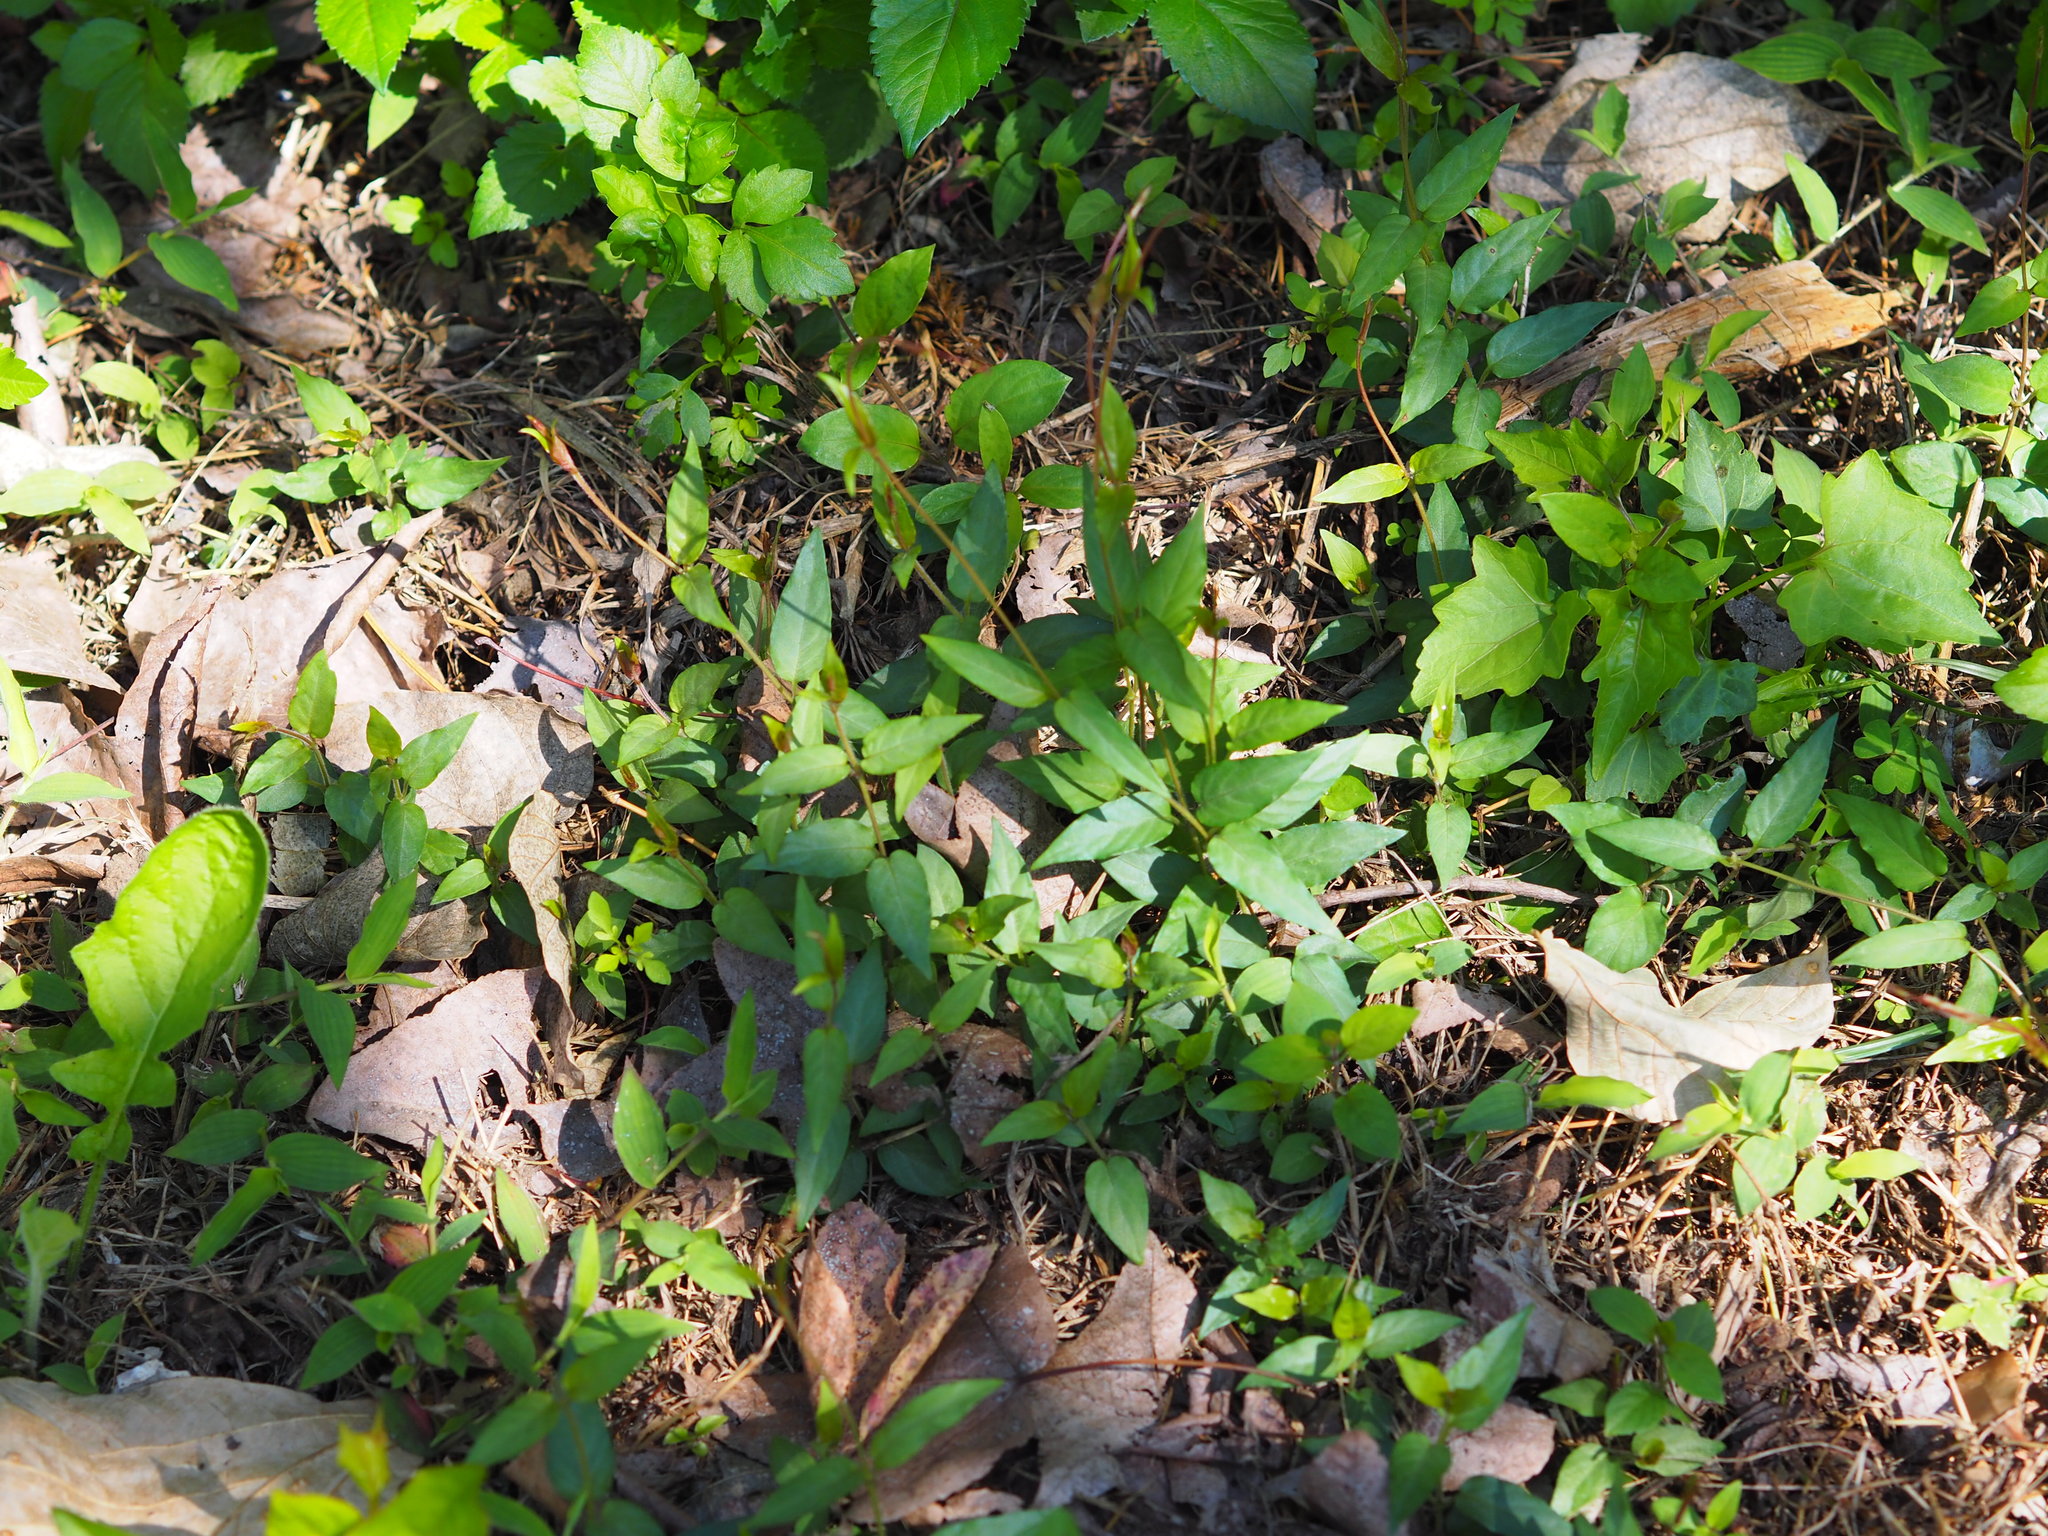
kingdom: Plantae
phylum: Tracheophyta
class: Magnoliopsida
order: Gentianales
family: Rubiaceae
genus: Paederia
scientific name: Paederia foetida
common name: Stinkvine
